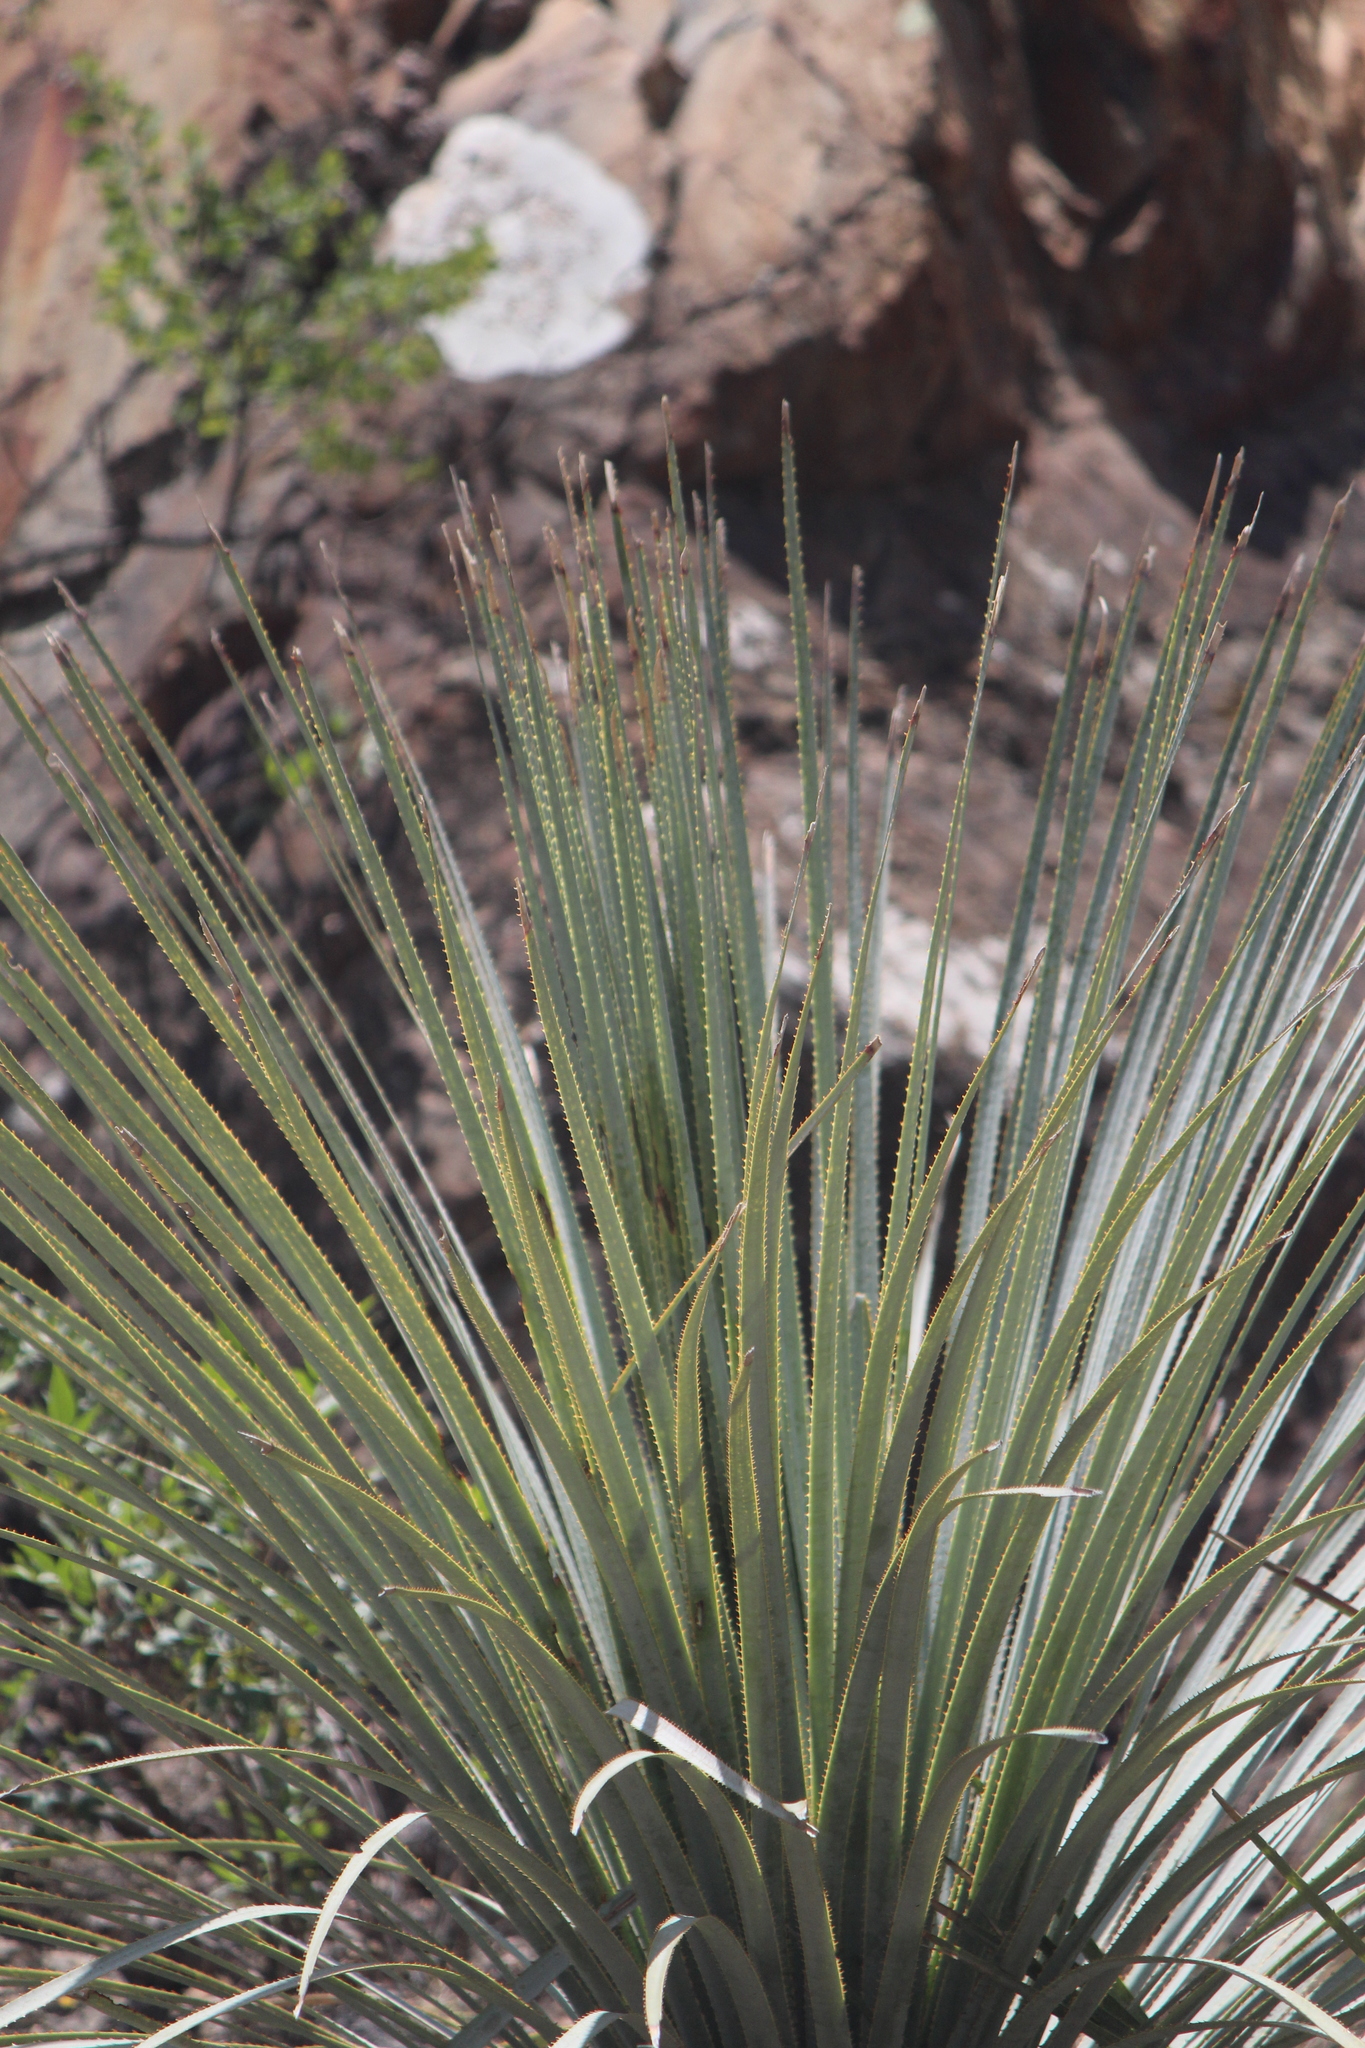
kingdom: Plantae
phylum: Tracheophyta
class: Liliopsida
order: Asparagales
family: Asparagaceae
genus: Dasylirion
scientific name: Dasylirion acrotrichum
